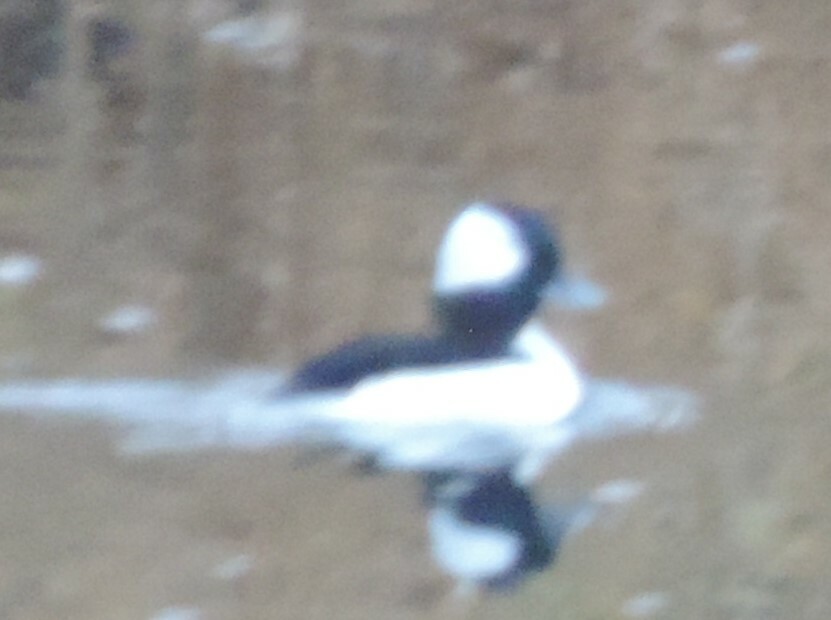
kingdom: Animalia
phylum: Chordata
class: Aves
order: Anseriformes
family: Anatidae
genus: Bucephala
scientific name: Bucephala albeola
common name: Bufflehead
